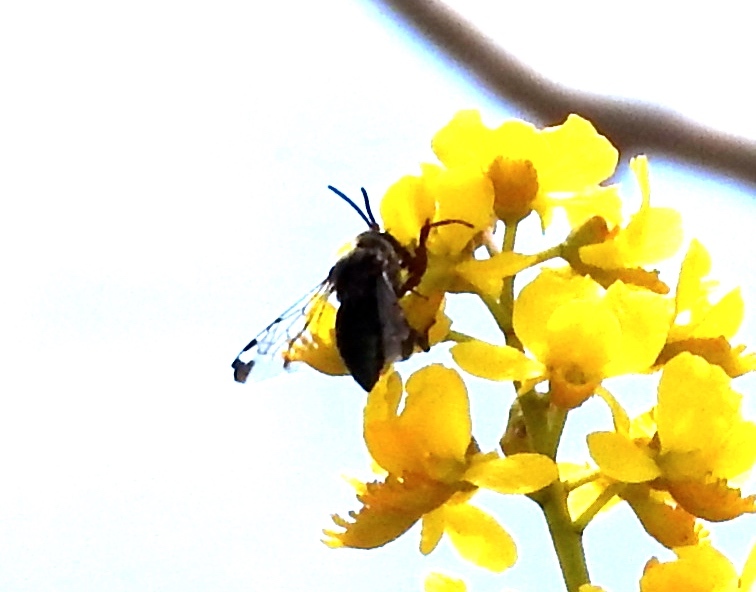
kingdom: Animalia
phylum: Arthropoda
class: Insecta
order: Hymenoptera
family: Apidae
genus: Mesocheira
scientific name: Mesocheira bicolor
